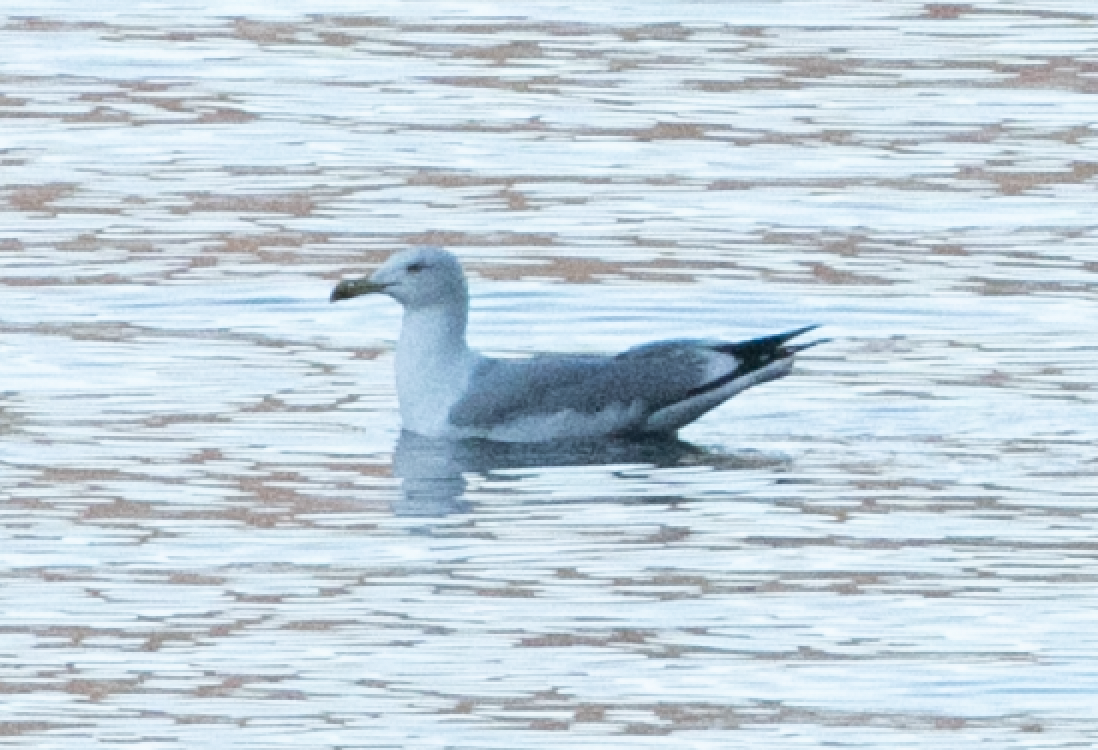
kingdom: Animalia
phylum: Chordata
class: Aves
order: Charadriiformes
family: Laridae
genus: Larus
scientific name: Larus michahellis
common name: Yellow-legged gull
